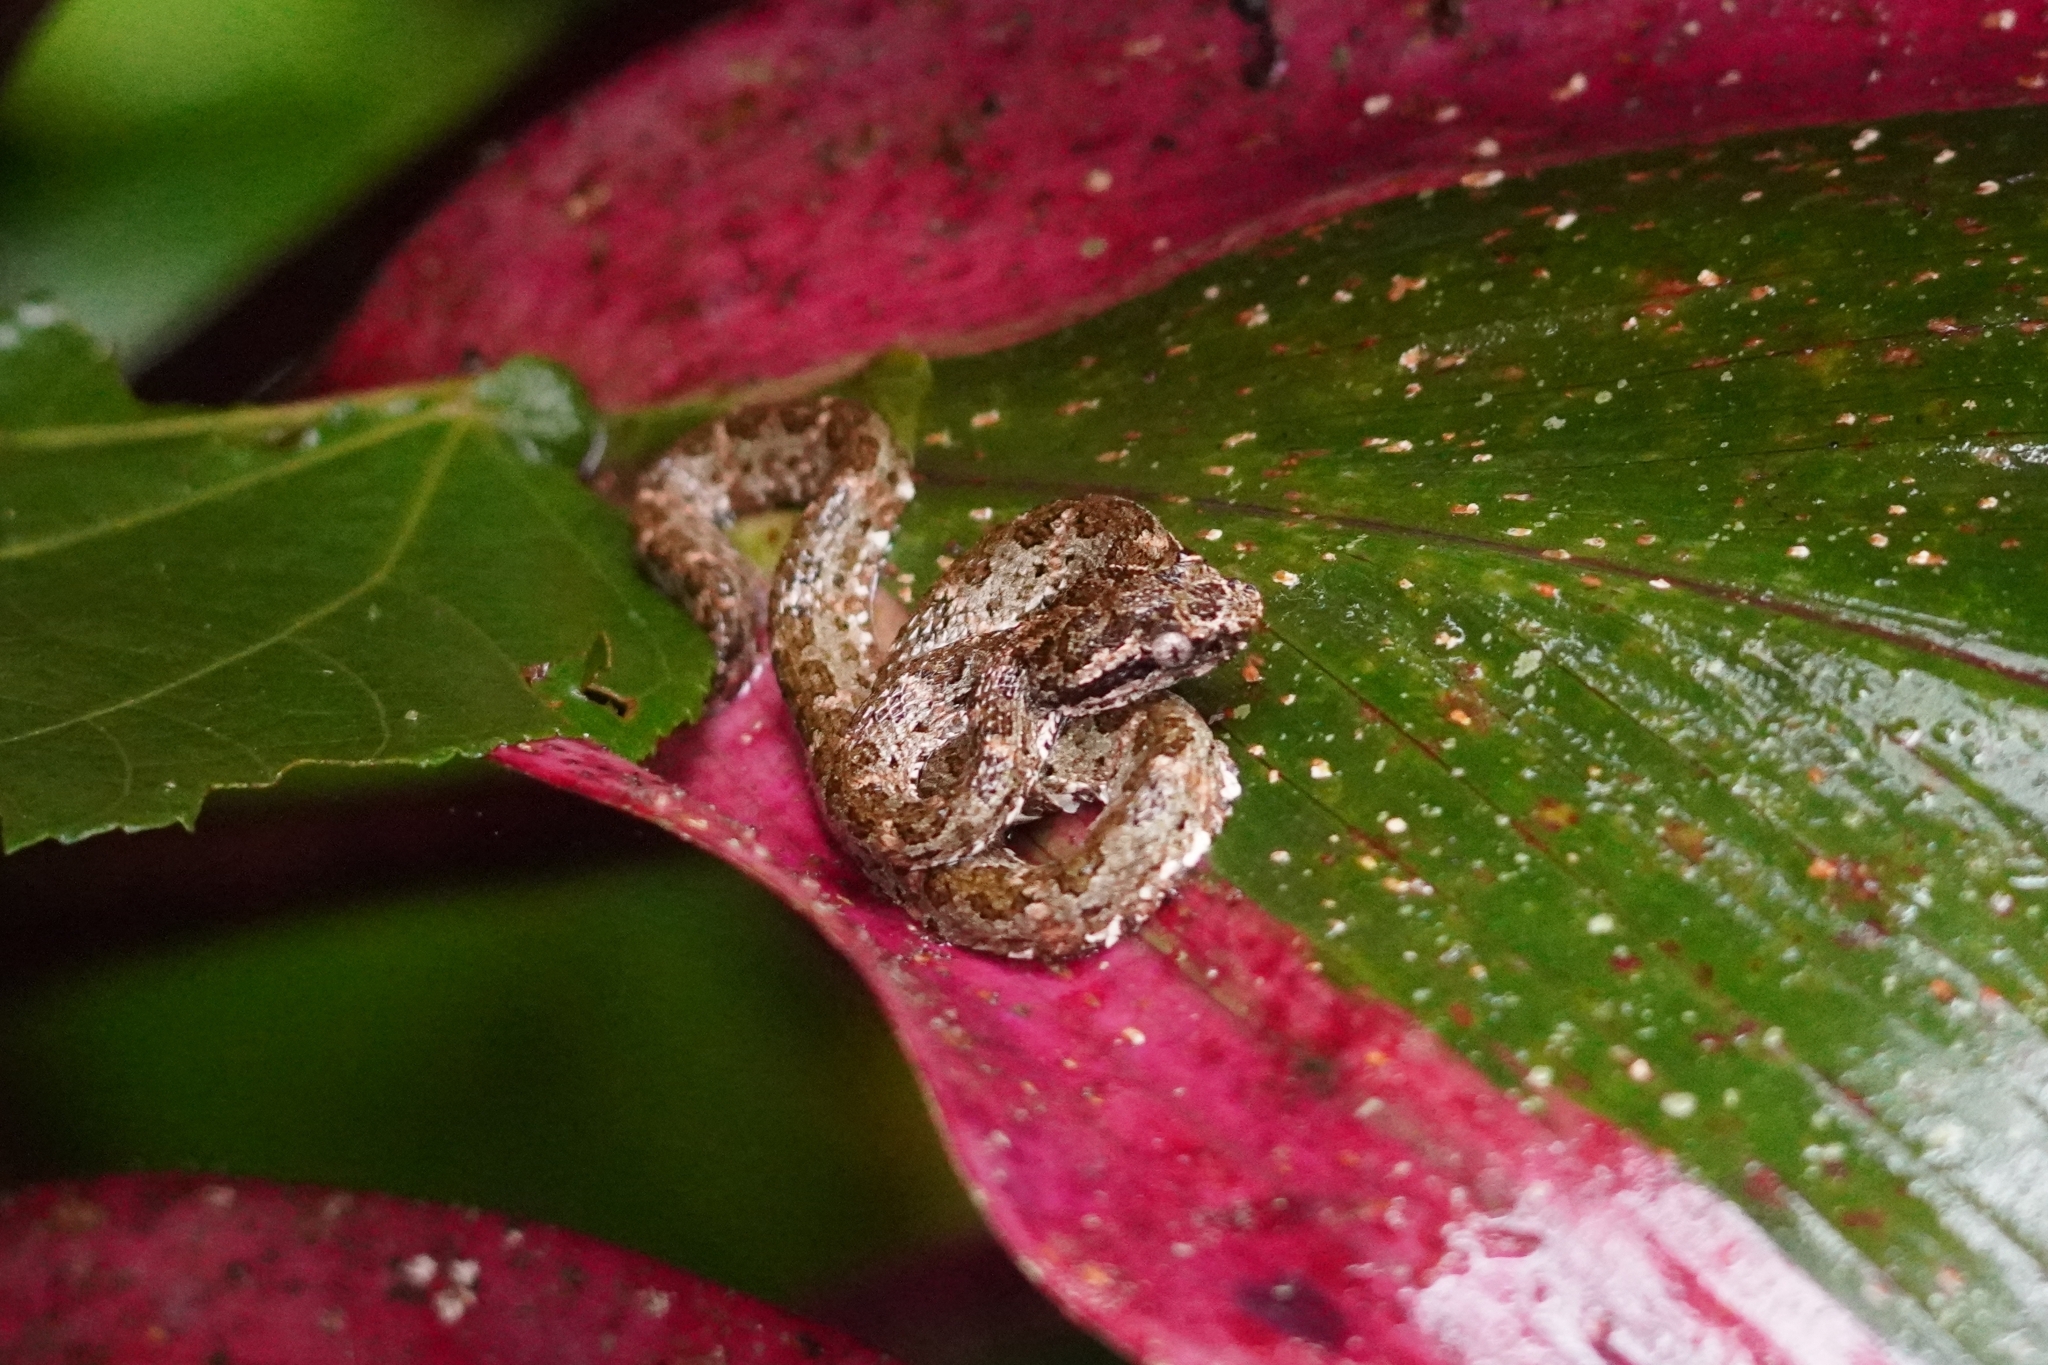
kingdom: Animalia
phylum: Chordata
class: Squamata
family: Viperidae
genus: Bothriechis
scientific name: Bothriechis schlegelii
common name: Eyelash viper
